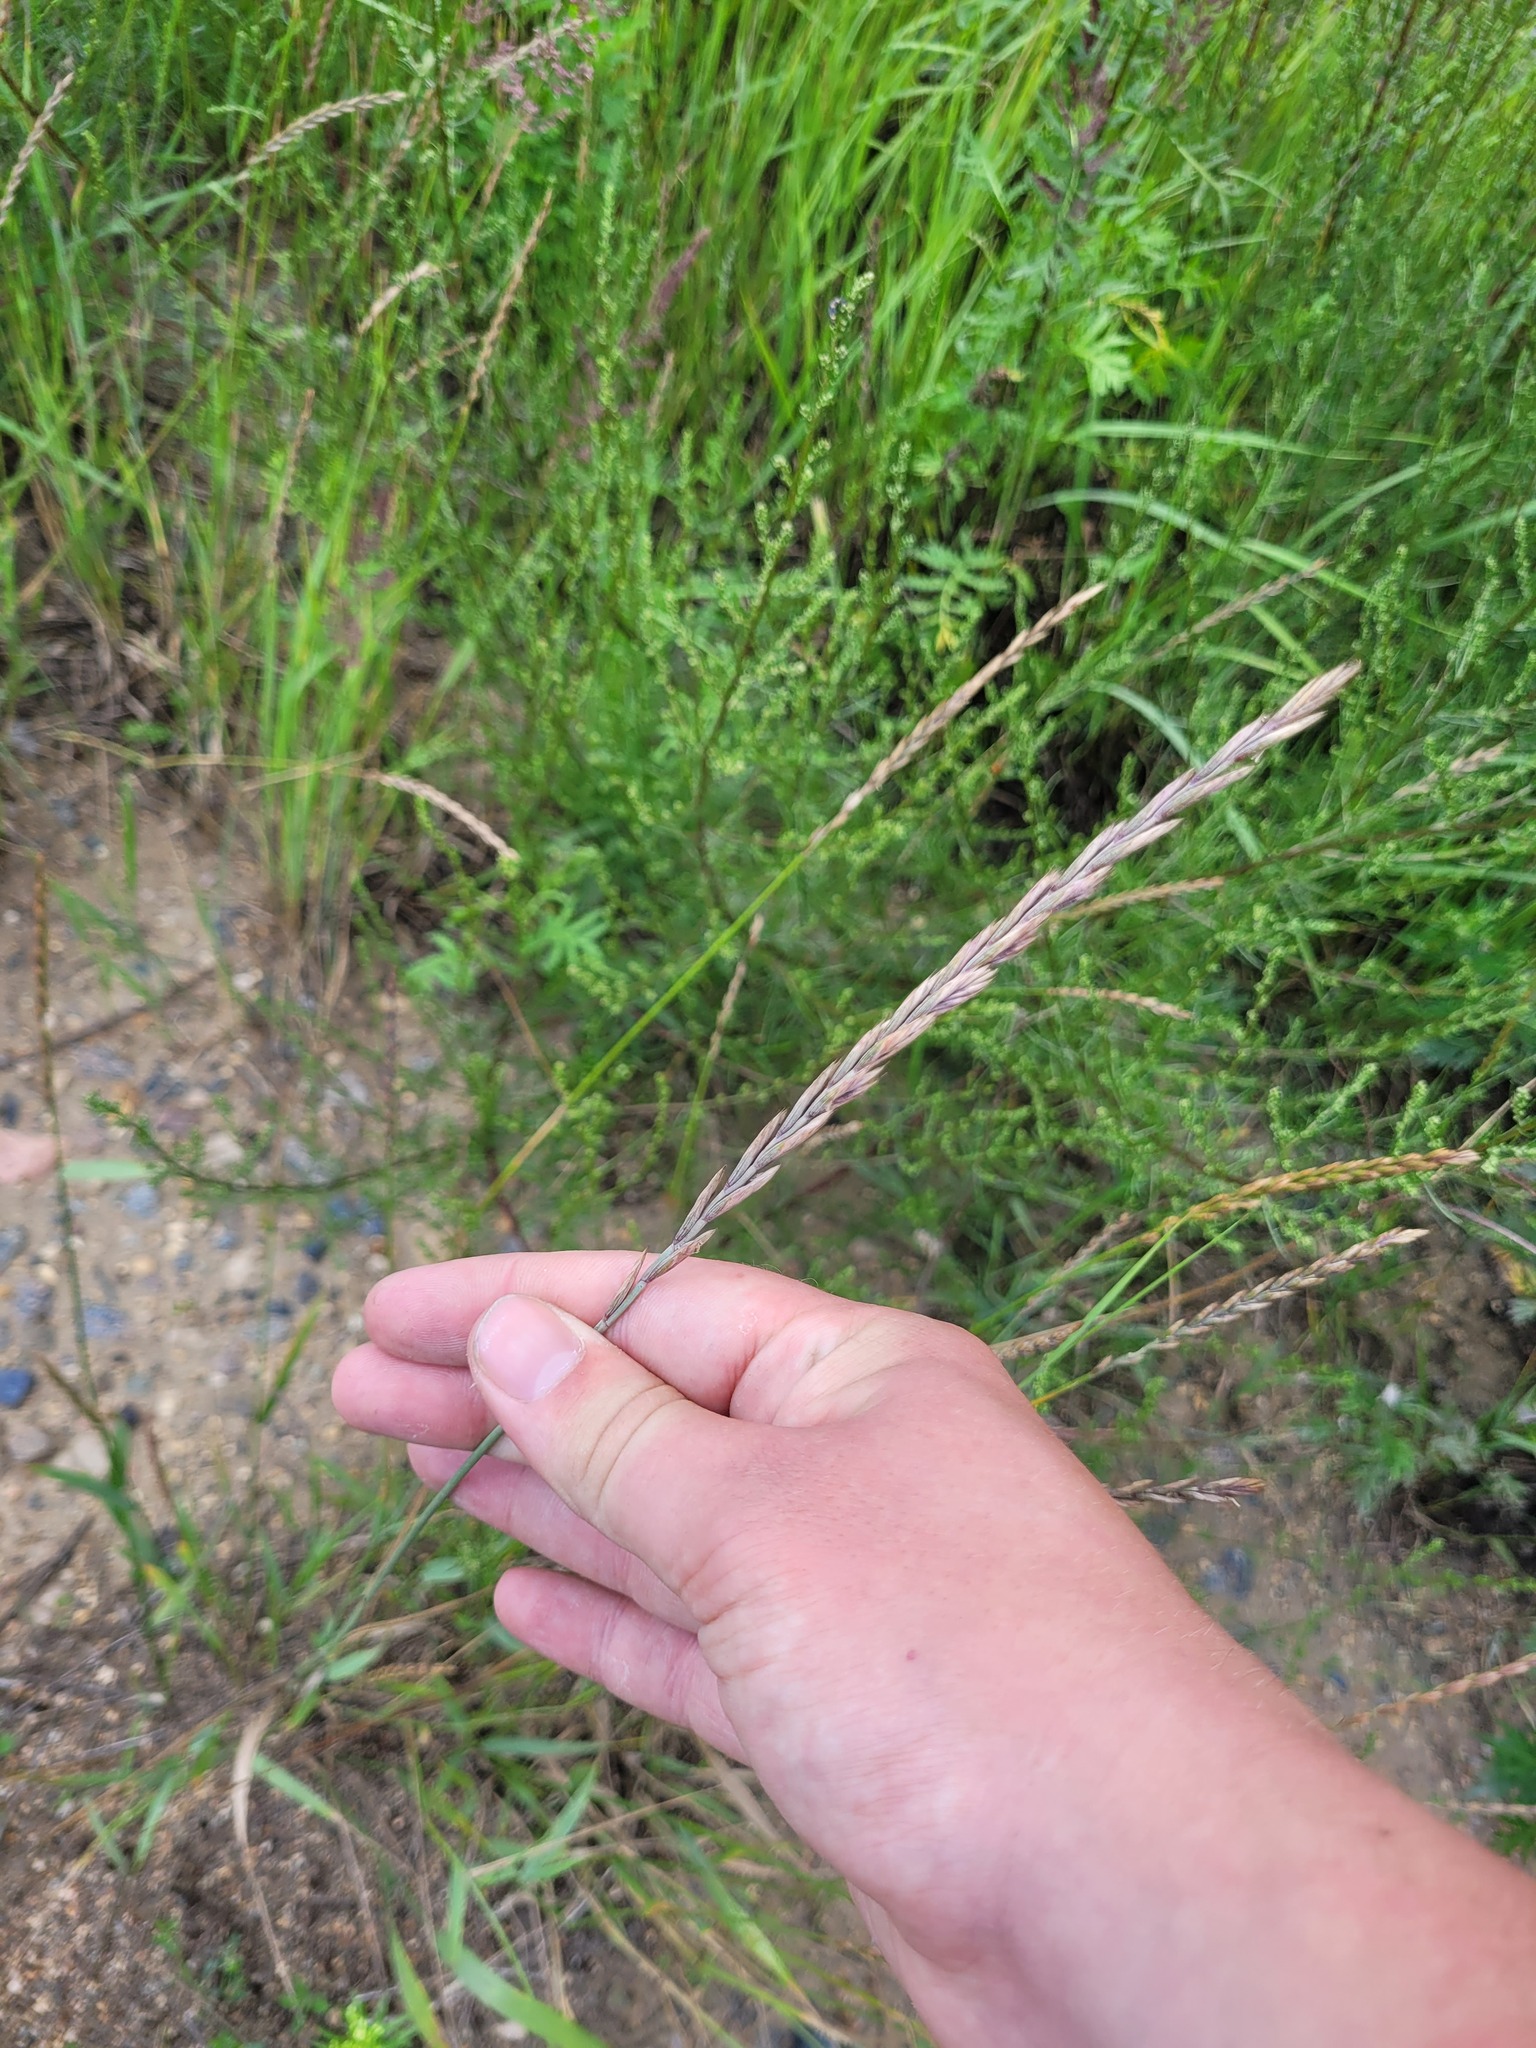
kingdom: Plantae
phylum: Tracheophyta
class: Liliopsida
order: Poales
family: Poaceae
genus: Elymus
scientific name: Elymus repens
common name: Quackgrass
